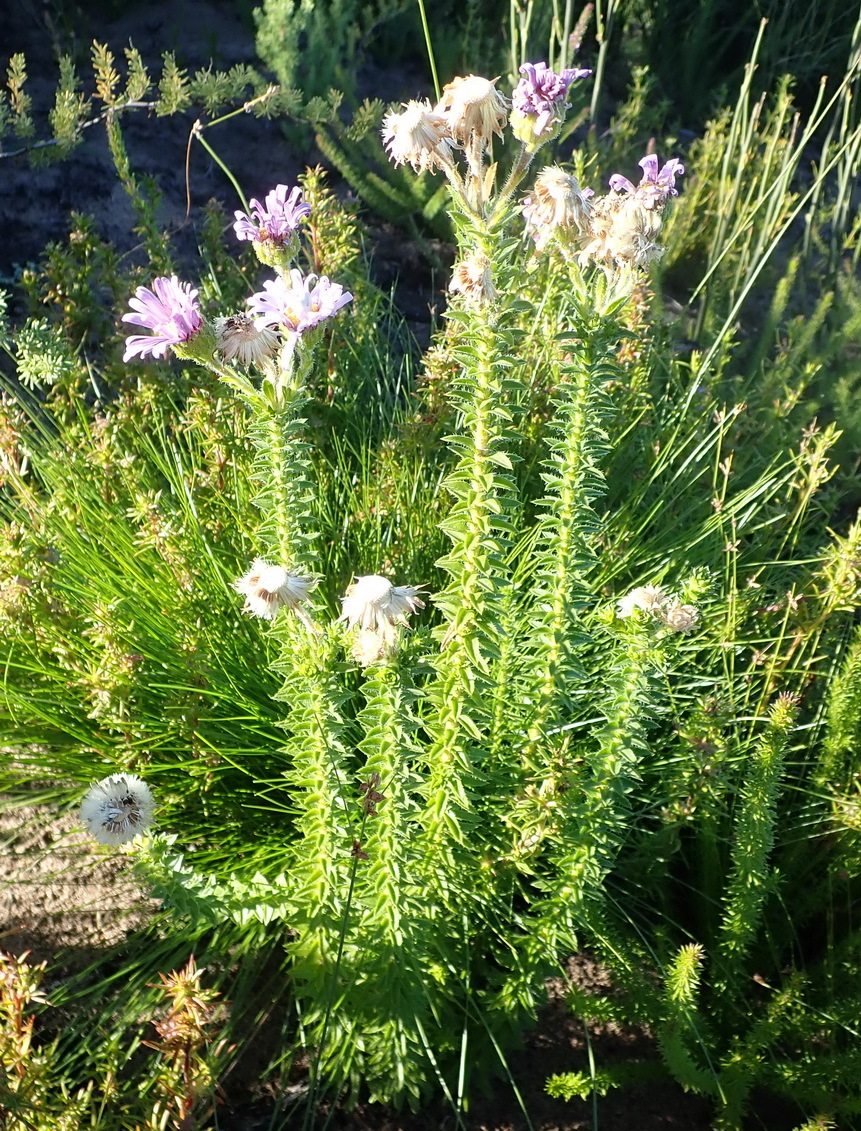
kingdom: Plantae
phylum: Tracheophyta
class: Magnoliopsida
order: Asterales
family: Asteraceae
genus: Felicia
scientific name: Felicia echinata
